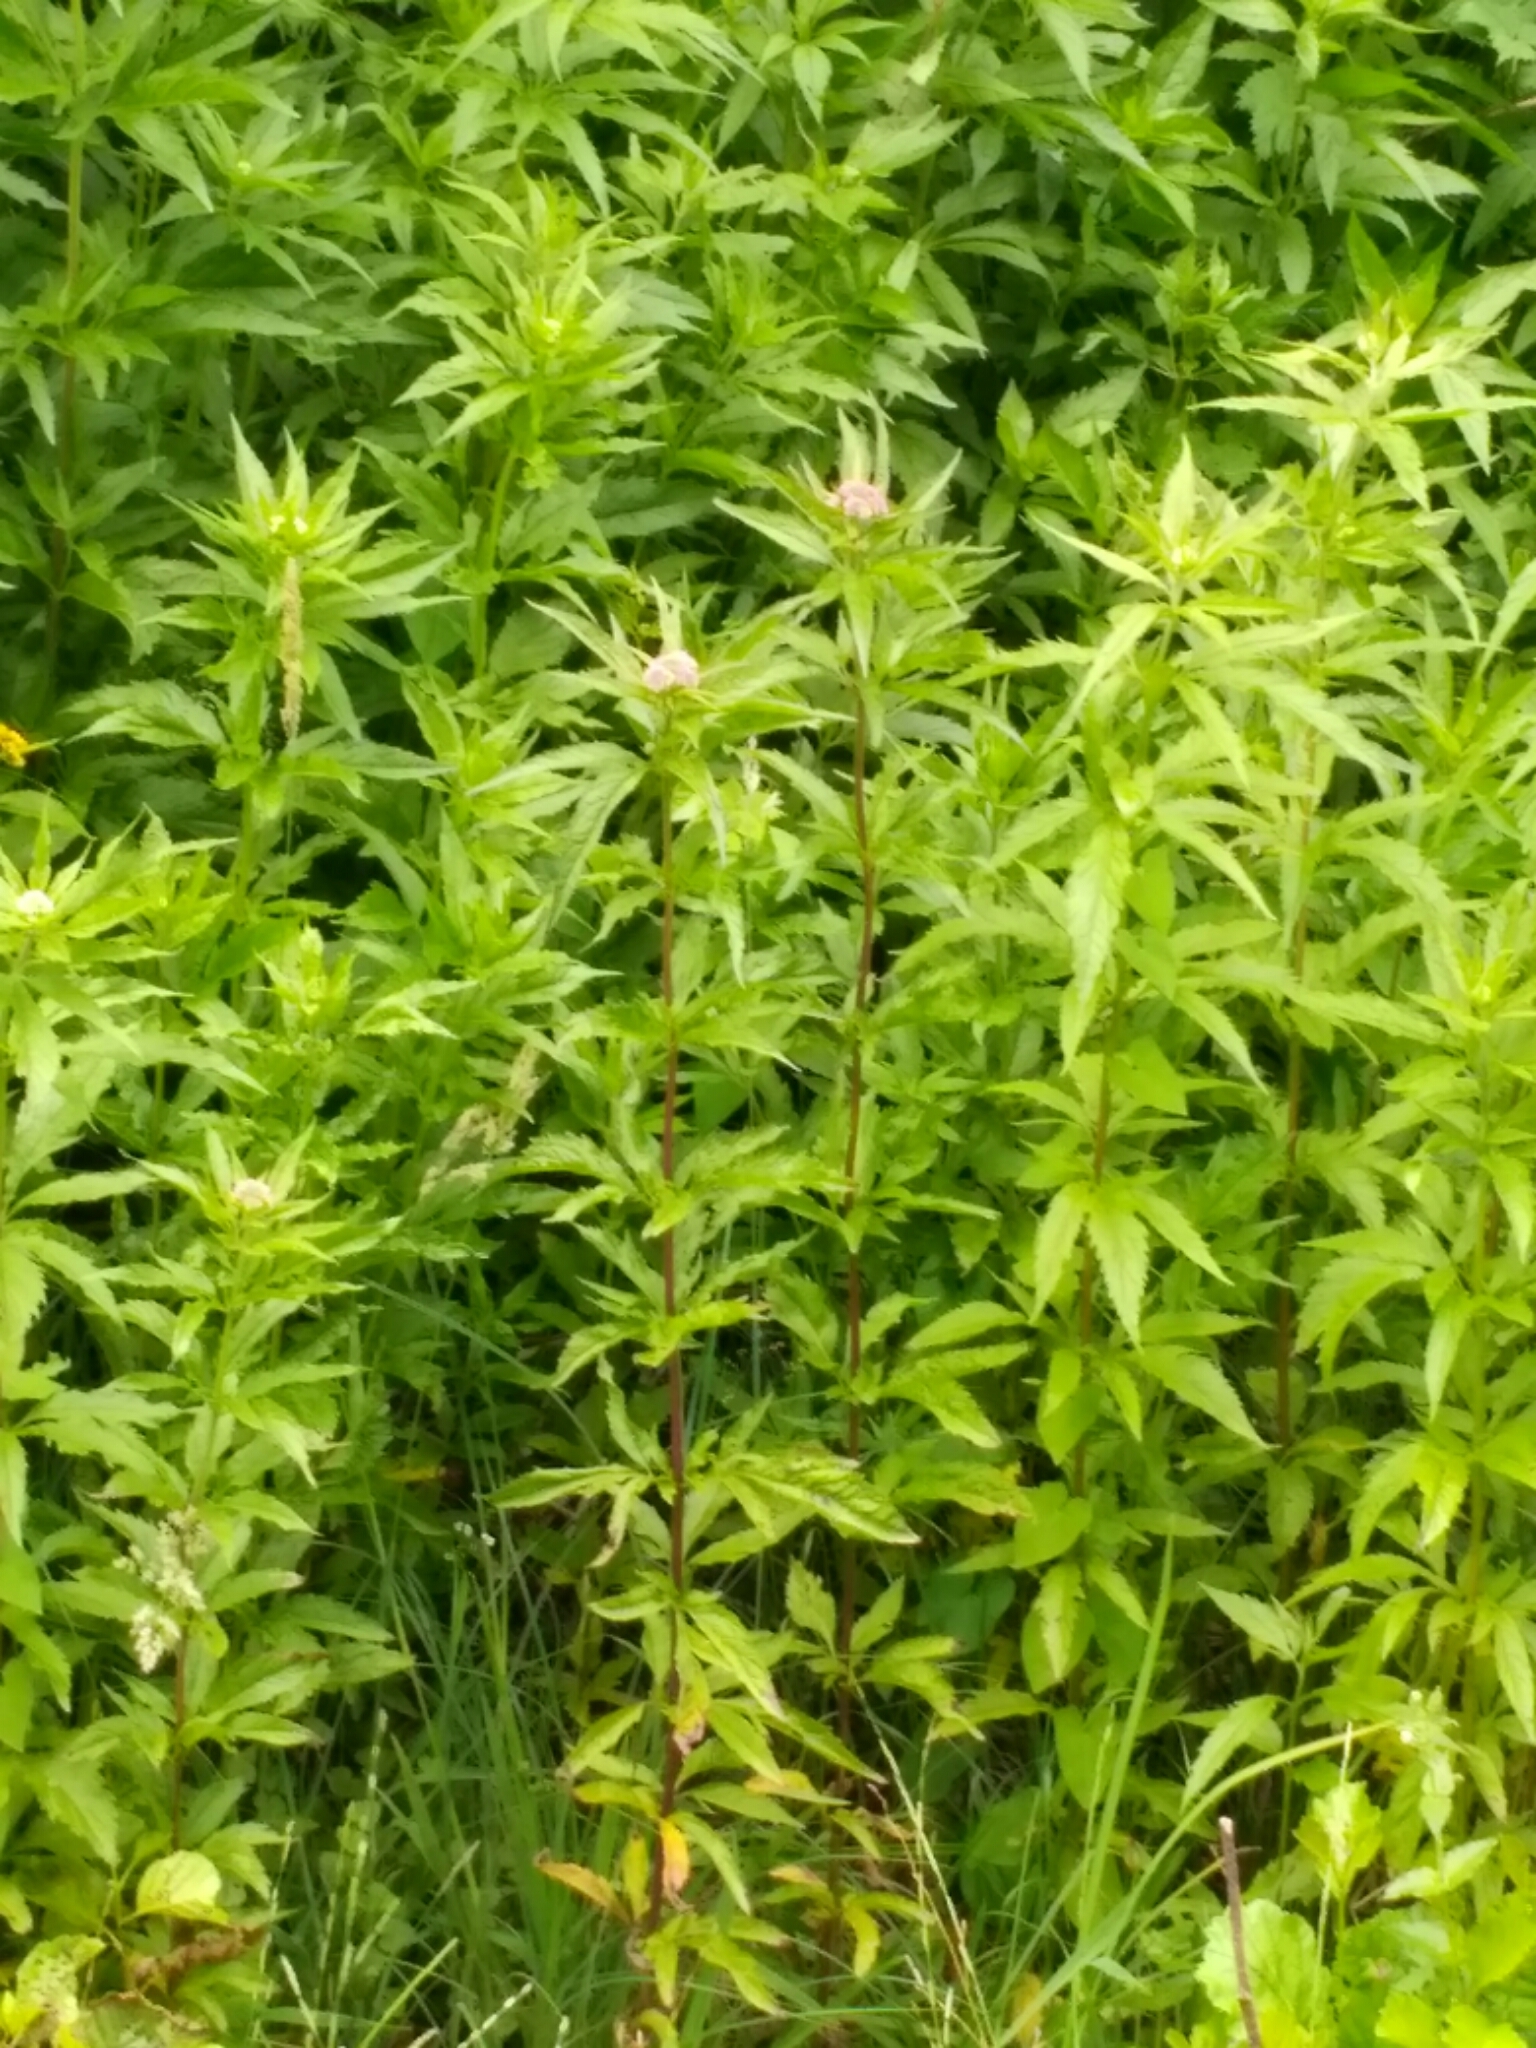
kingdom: Plantae
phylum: Tracheophyta
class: Magnoliopsida
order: Asterales
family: Asteraceae
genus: Eupatorium
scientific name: Eupatorium cannabinum
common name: Hemp-agrimony
